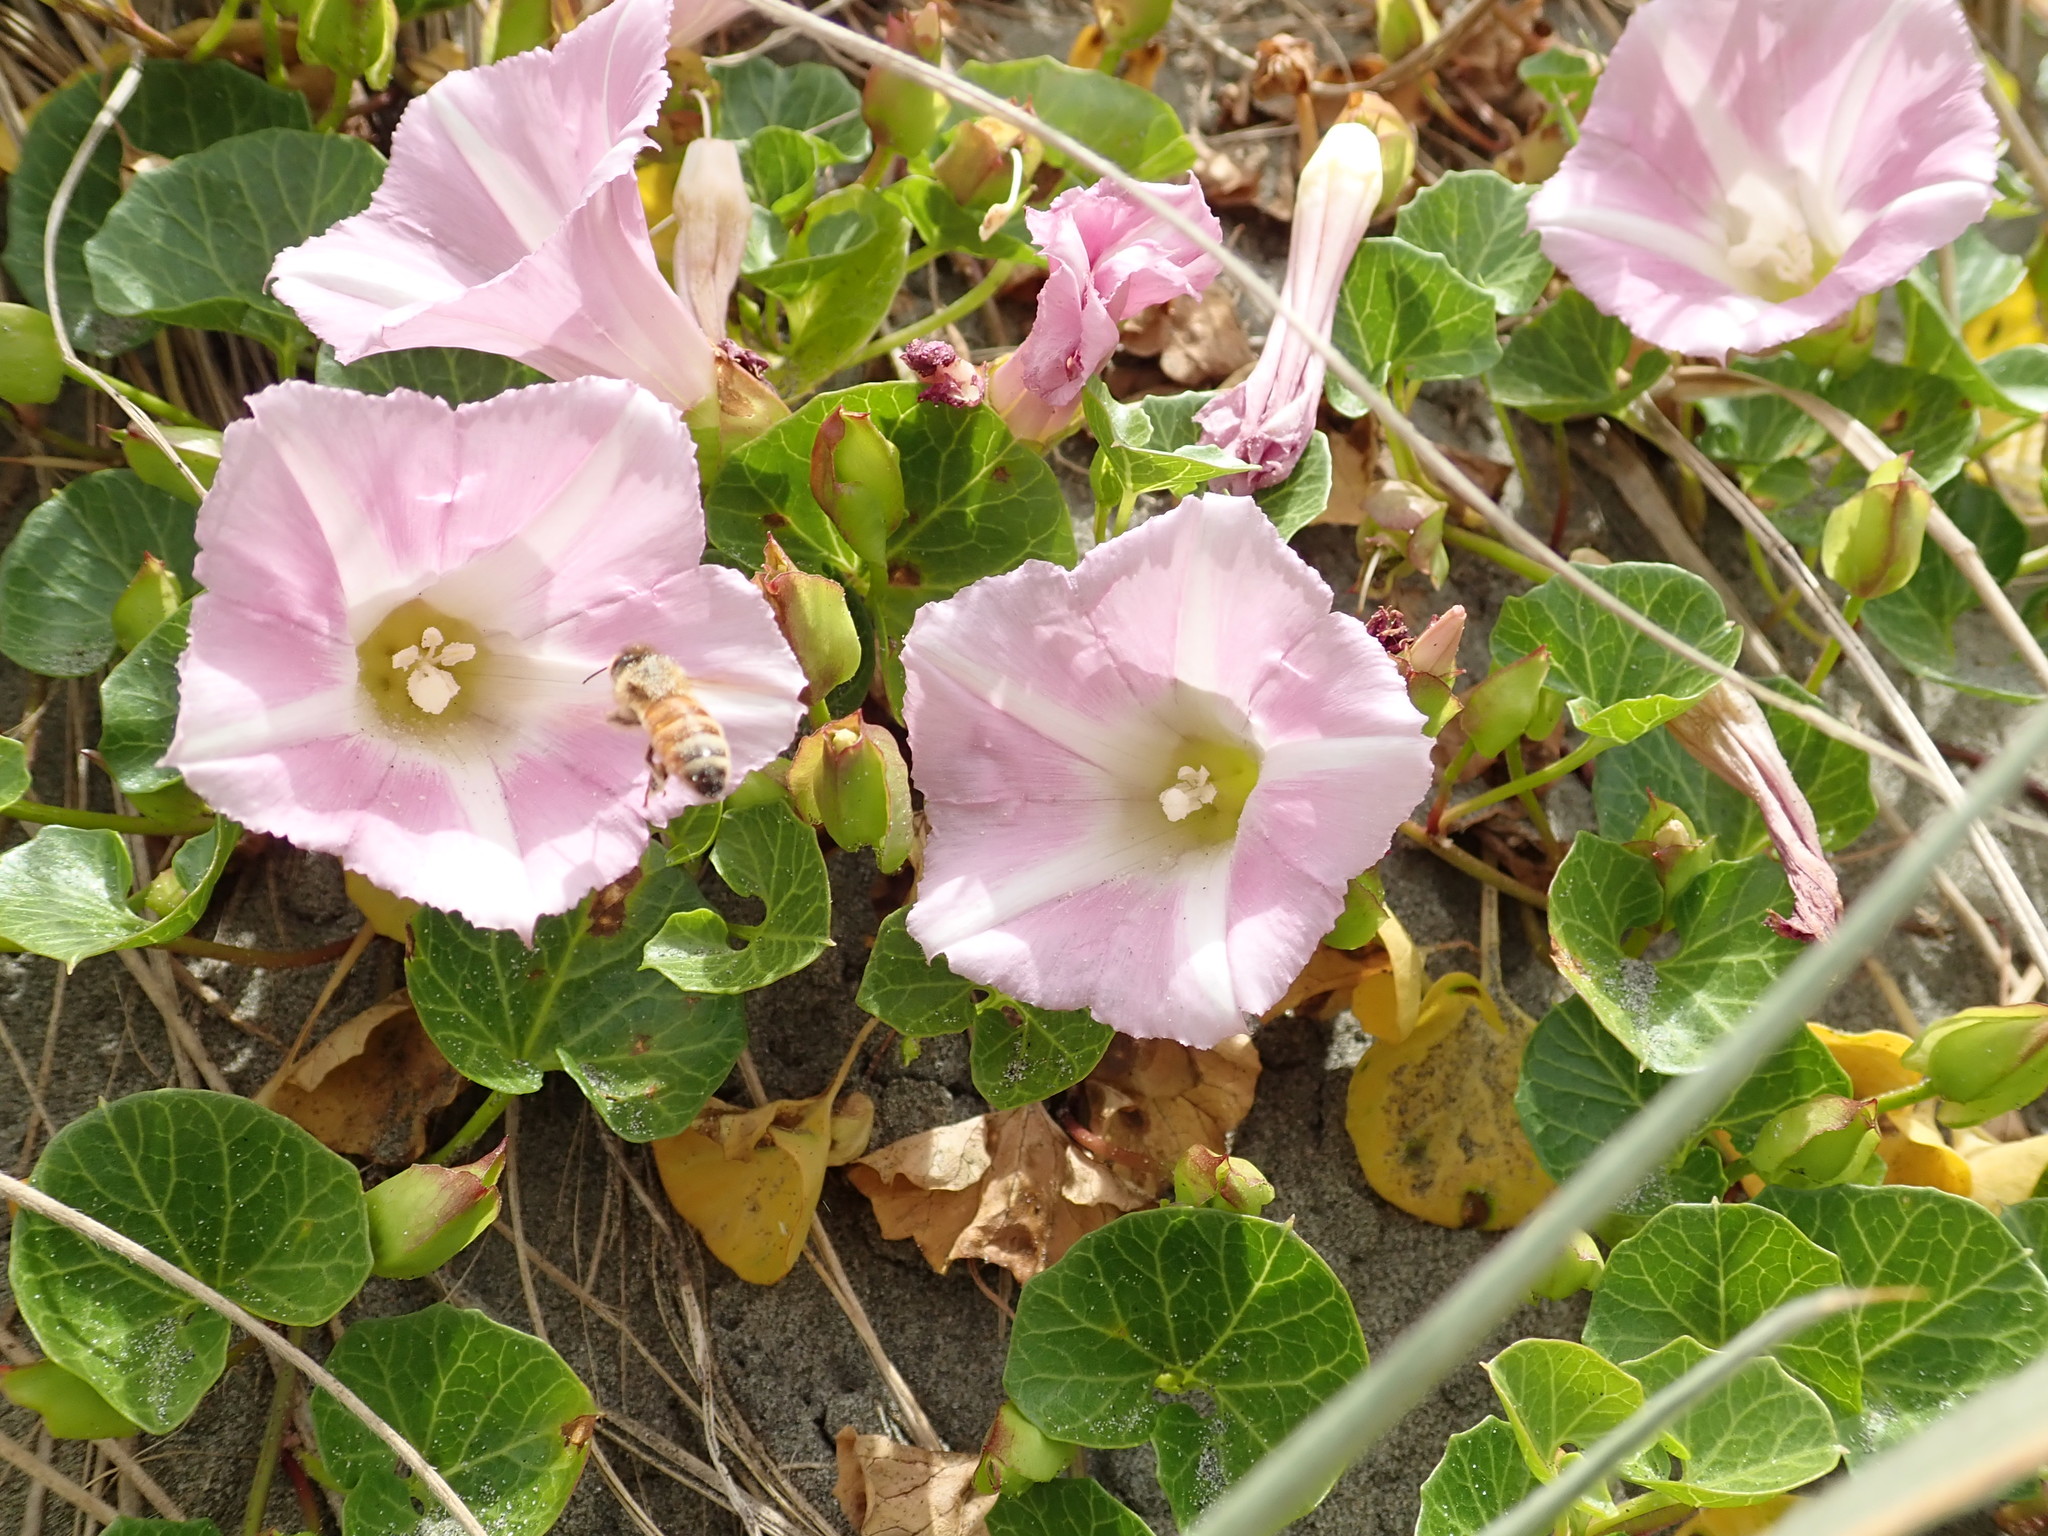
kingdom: Animalia
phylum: Arthropoda
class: Insecta
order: Hymenoptera
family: Apidae
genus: Apis
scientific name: Apis mellifera
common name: Honey bee
